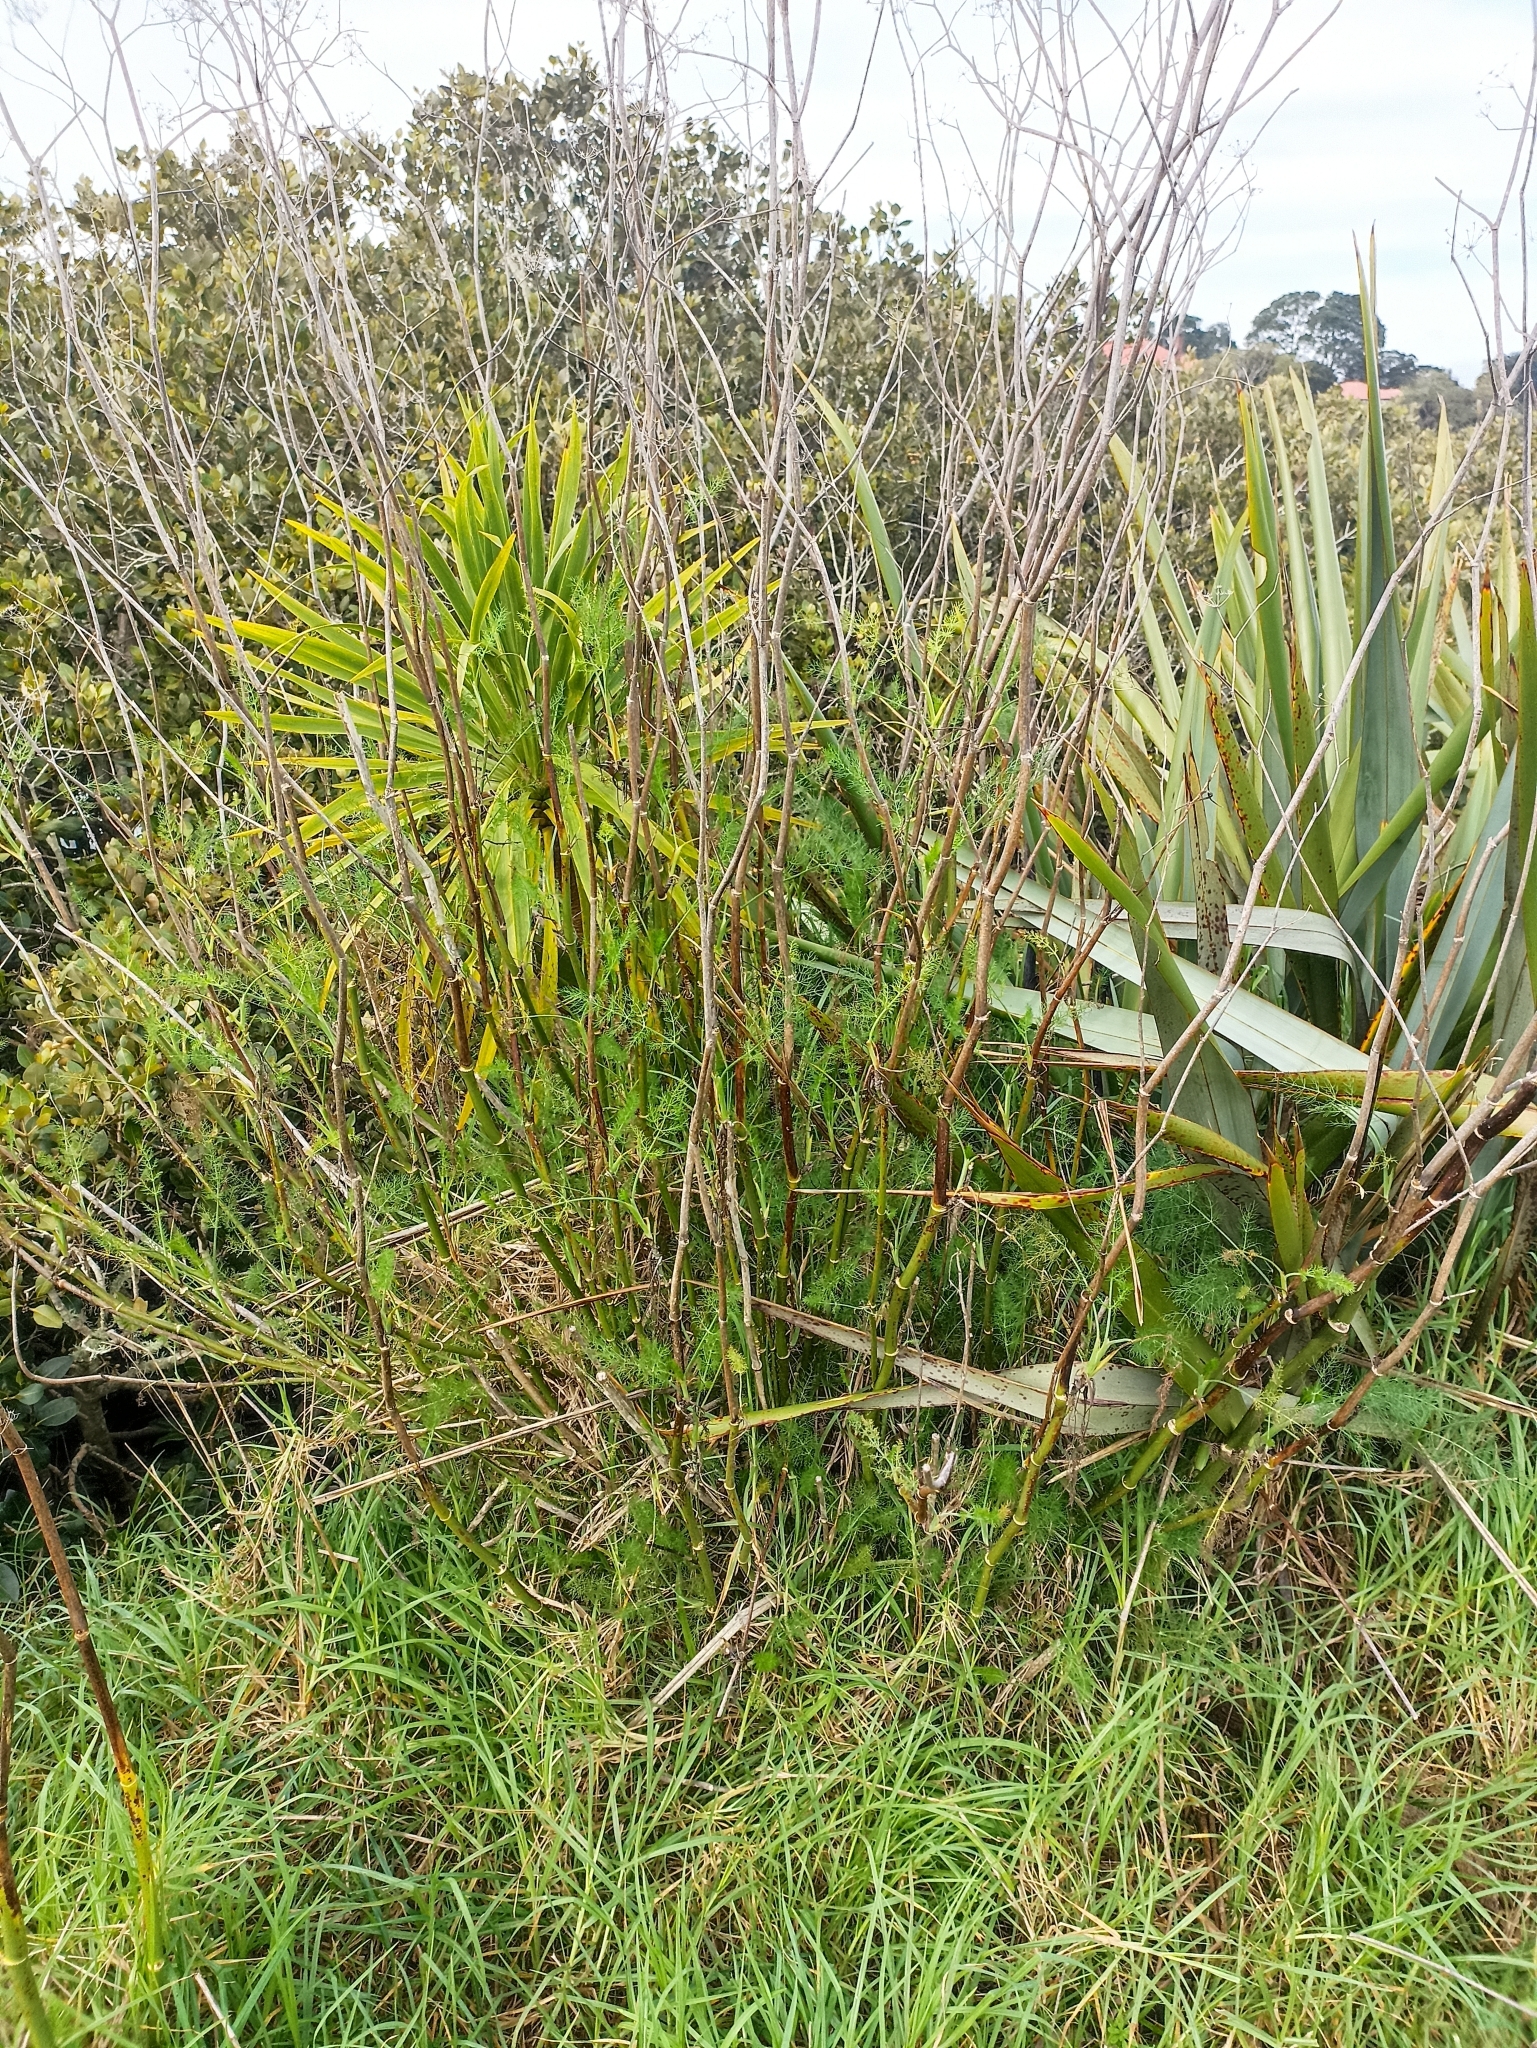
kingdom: Plantae
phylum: Tracheophyta
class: Magnoliopsida
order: Apiales
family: Apiaceae
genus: Foeniculum
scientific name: Foeniculum vulgare
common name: Fennel
